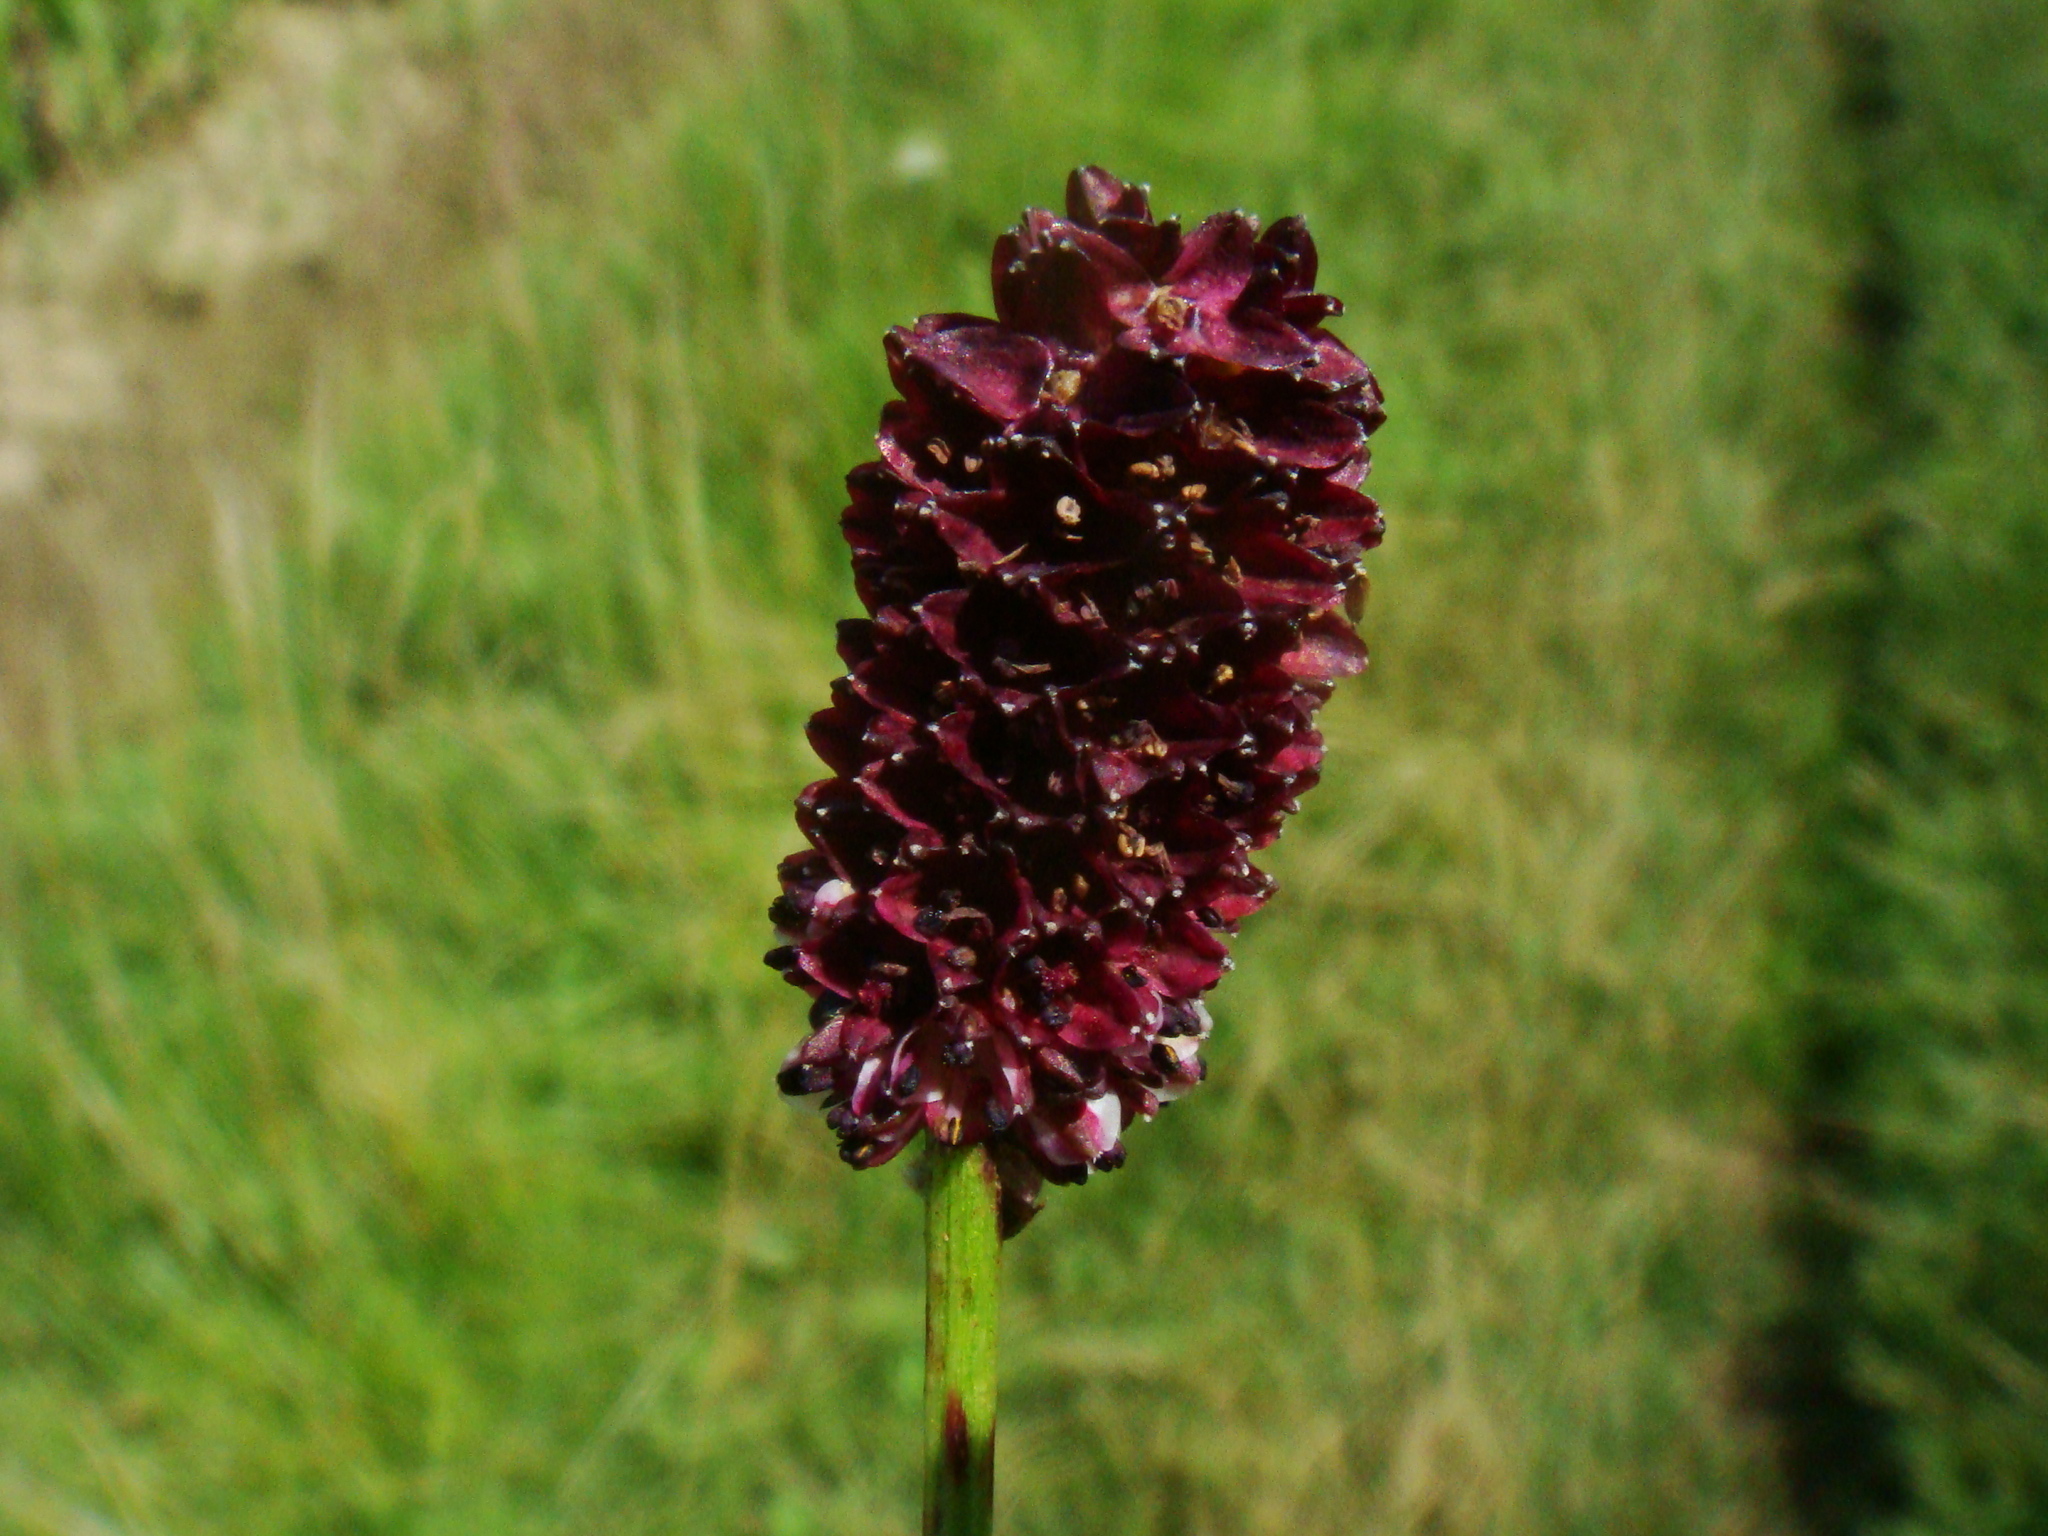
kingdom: Plantae
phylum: Tracheophyta
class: Magnoliopsida
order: Rosales
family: Rosaceae
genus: Sanguisorba
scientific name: Sanguisorba officinalis
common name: Great burnet
